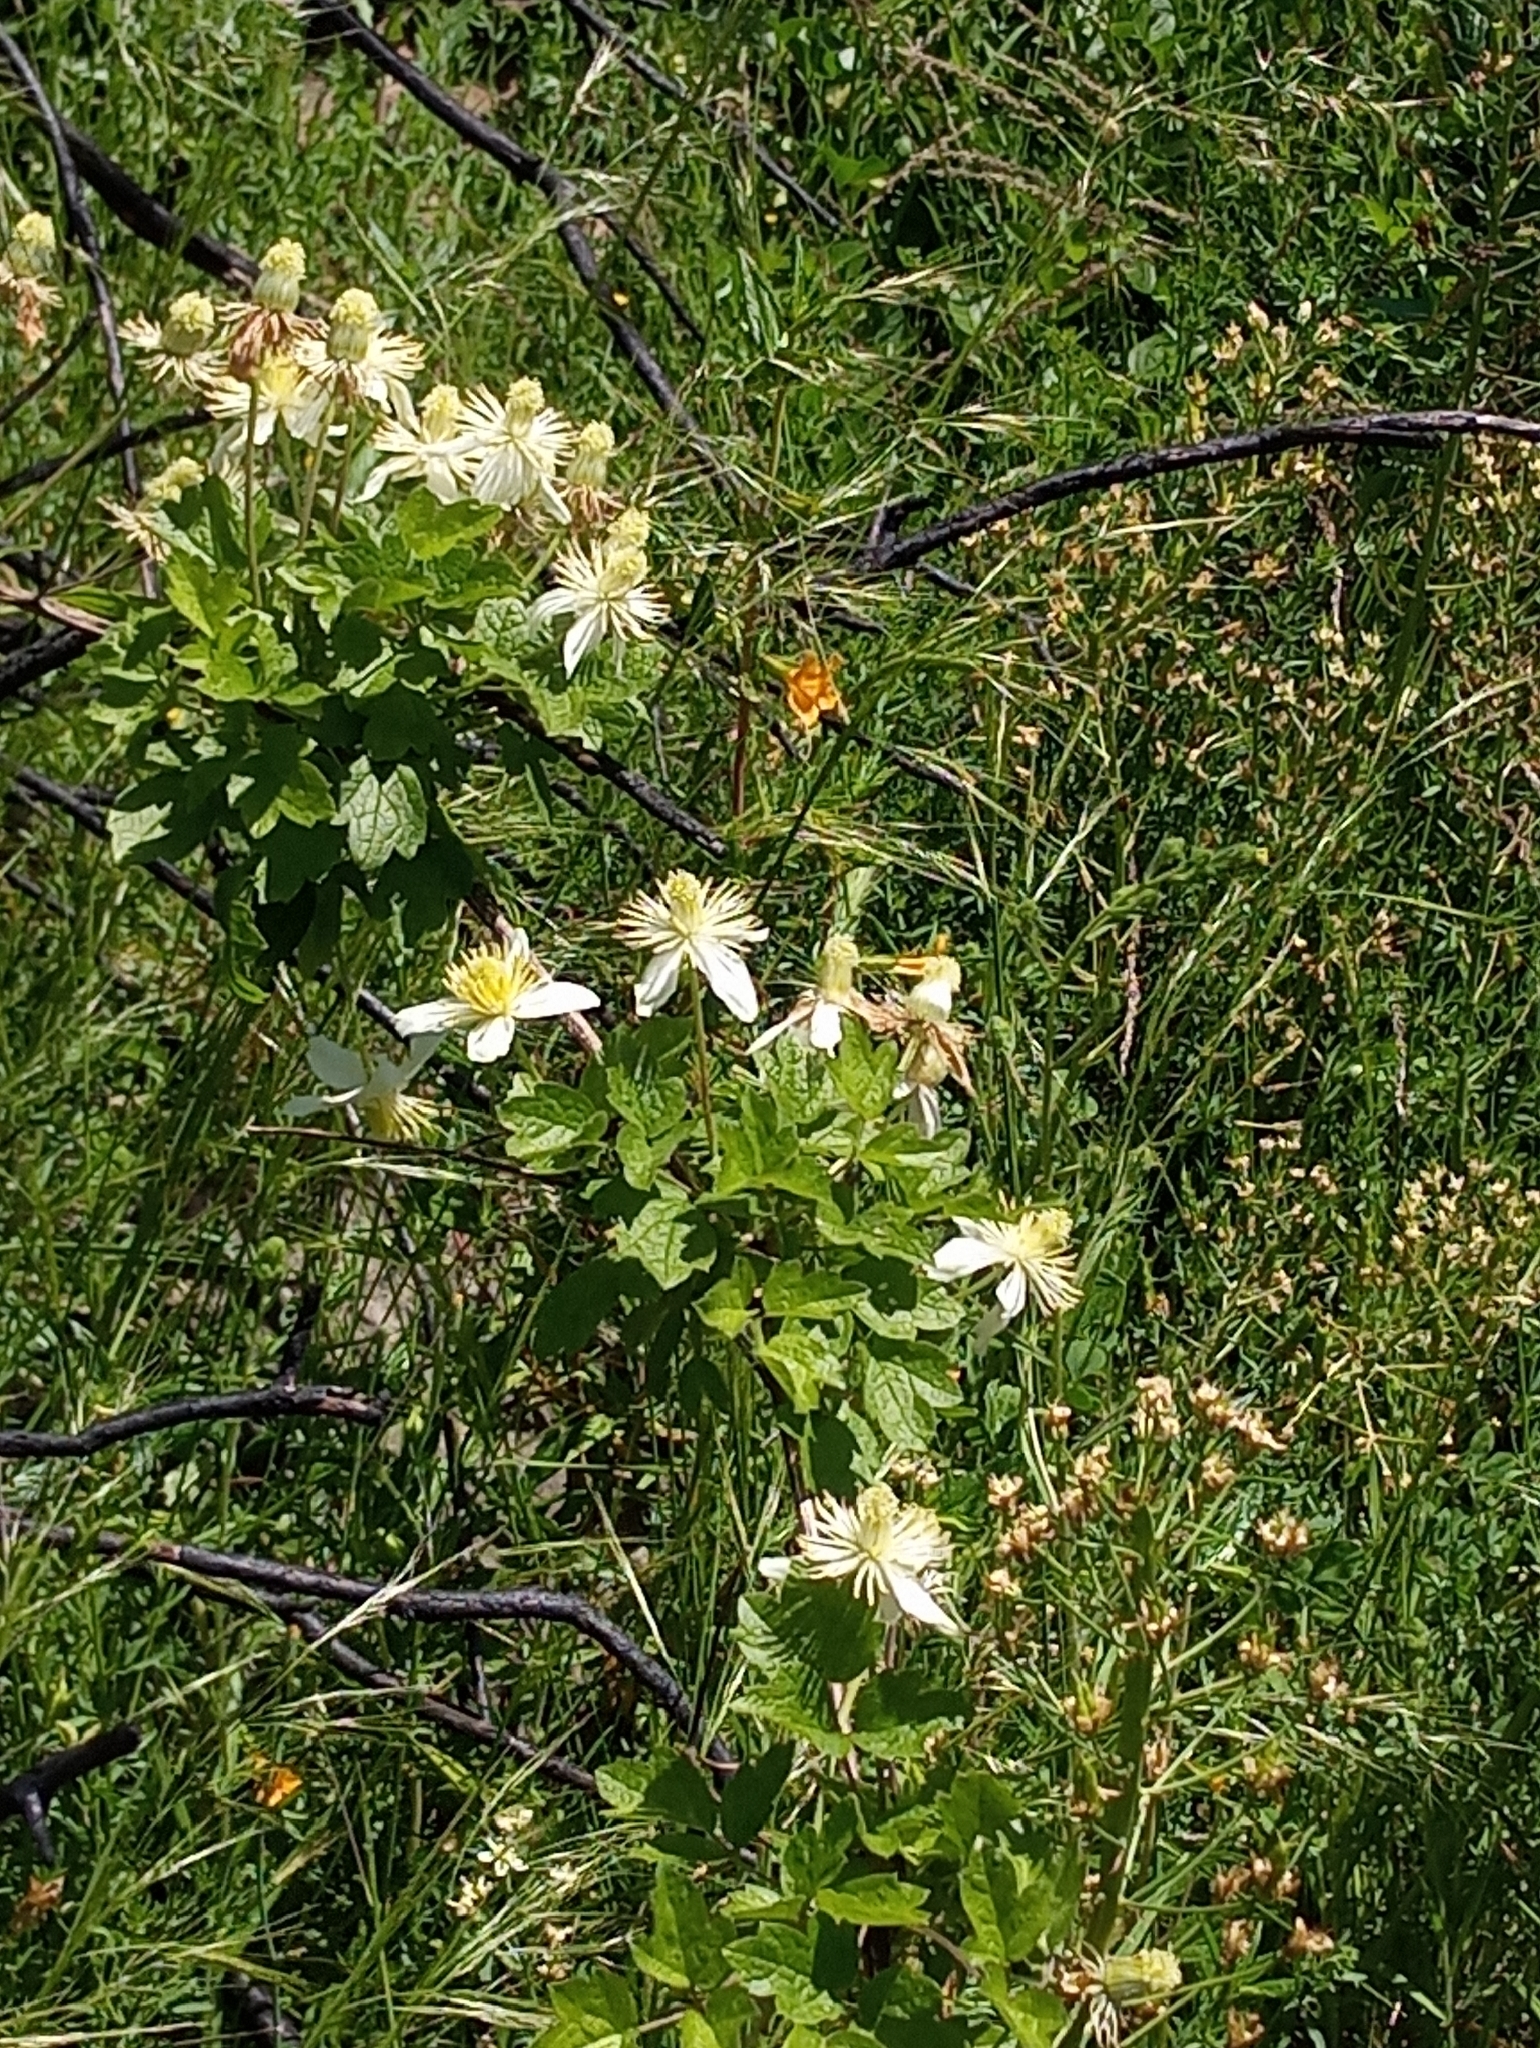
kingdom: Plantae
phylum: Tracheophyta
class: Magnoliopsida
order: Ranunculales
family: Ranunculaceae
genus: Clematis
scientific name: Clematis lasiantha
